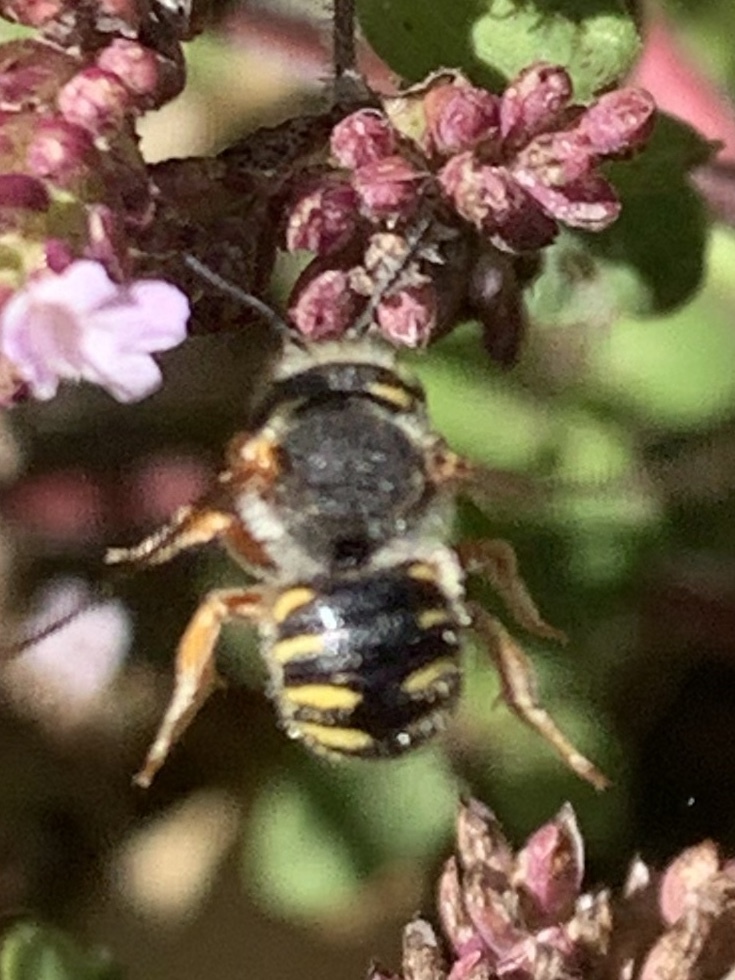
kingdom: Animalia
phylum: Arthropoda
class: Insecta
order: Hymenoptera
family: Megachilidae
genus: Anthidium
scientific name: Anthidium oblongatum
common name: Oblong wool carder bee
